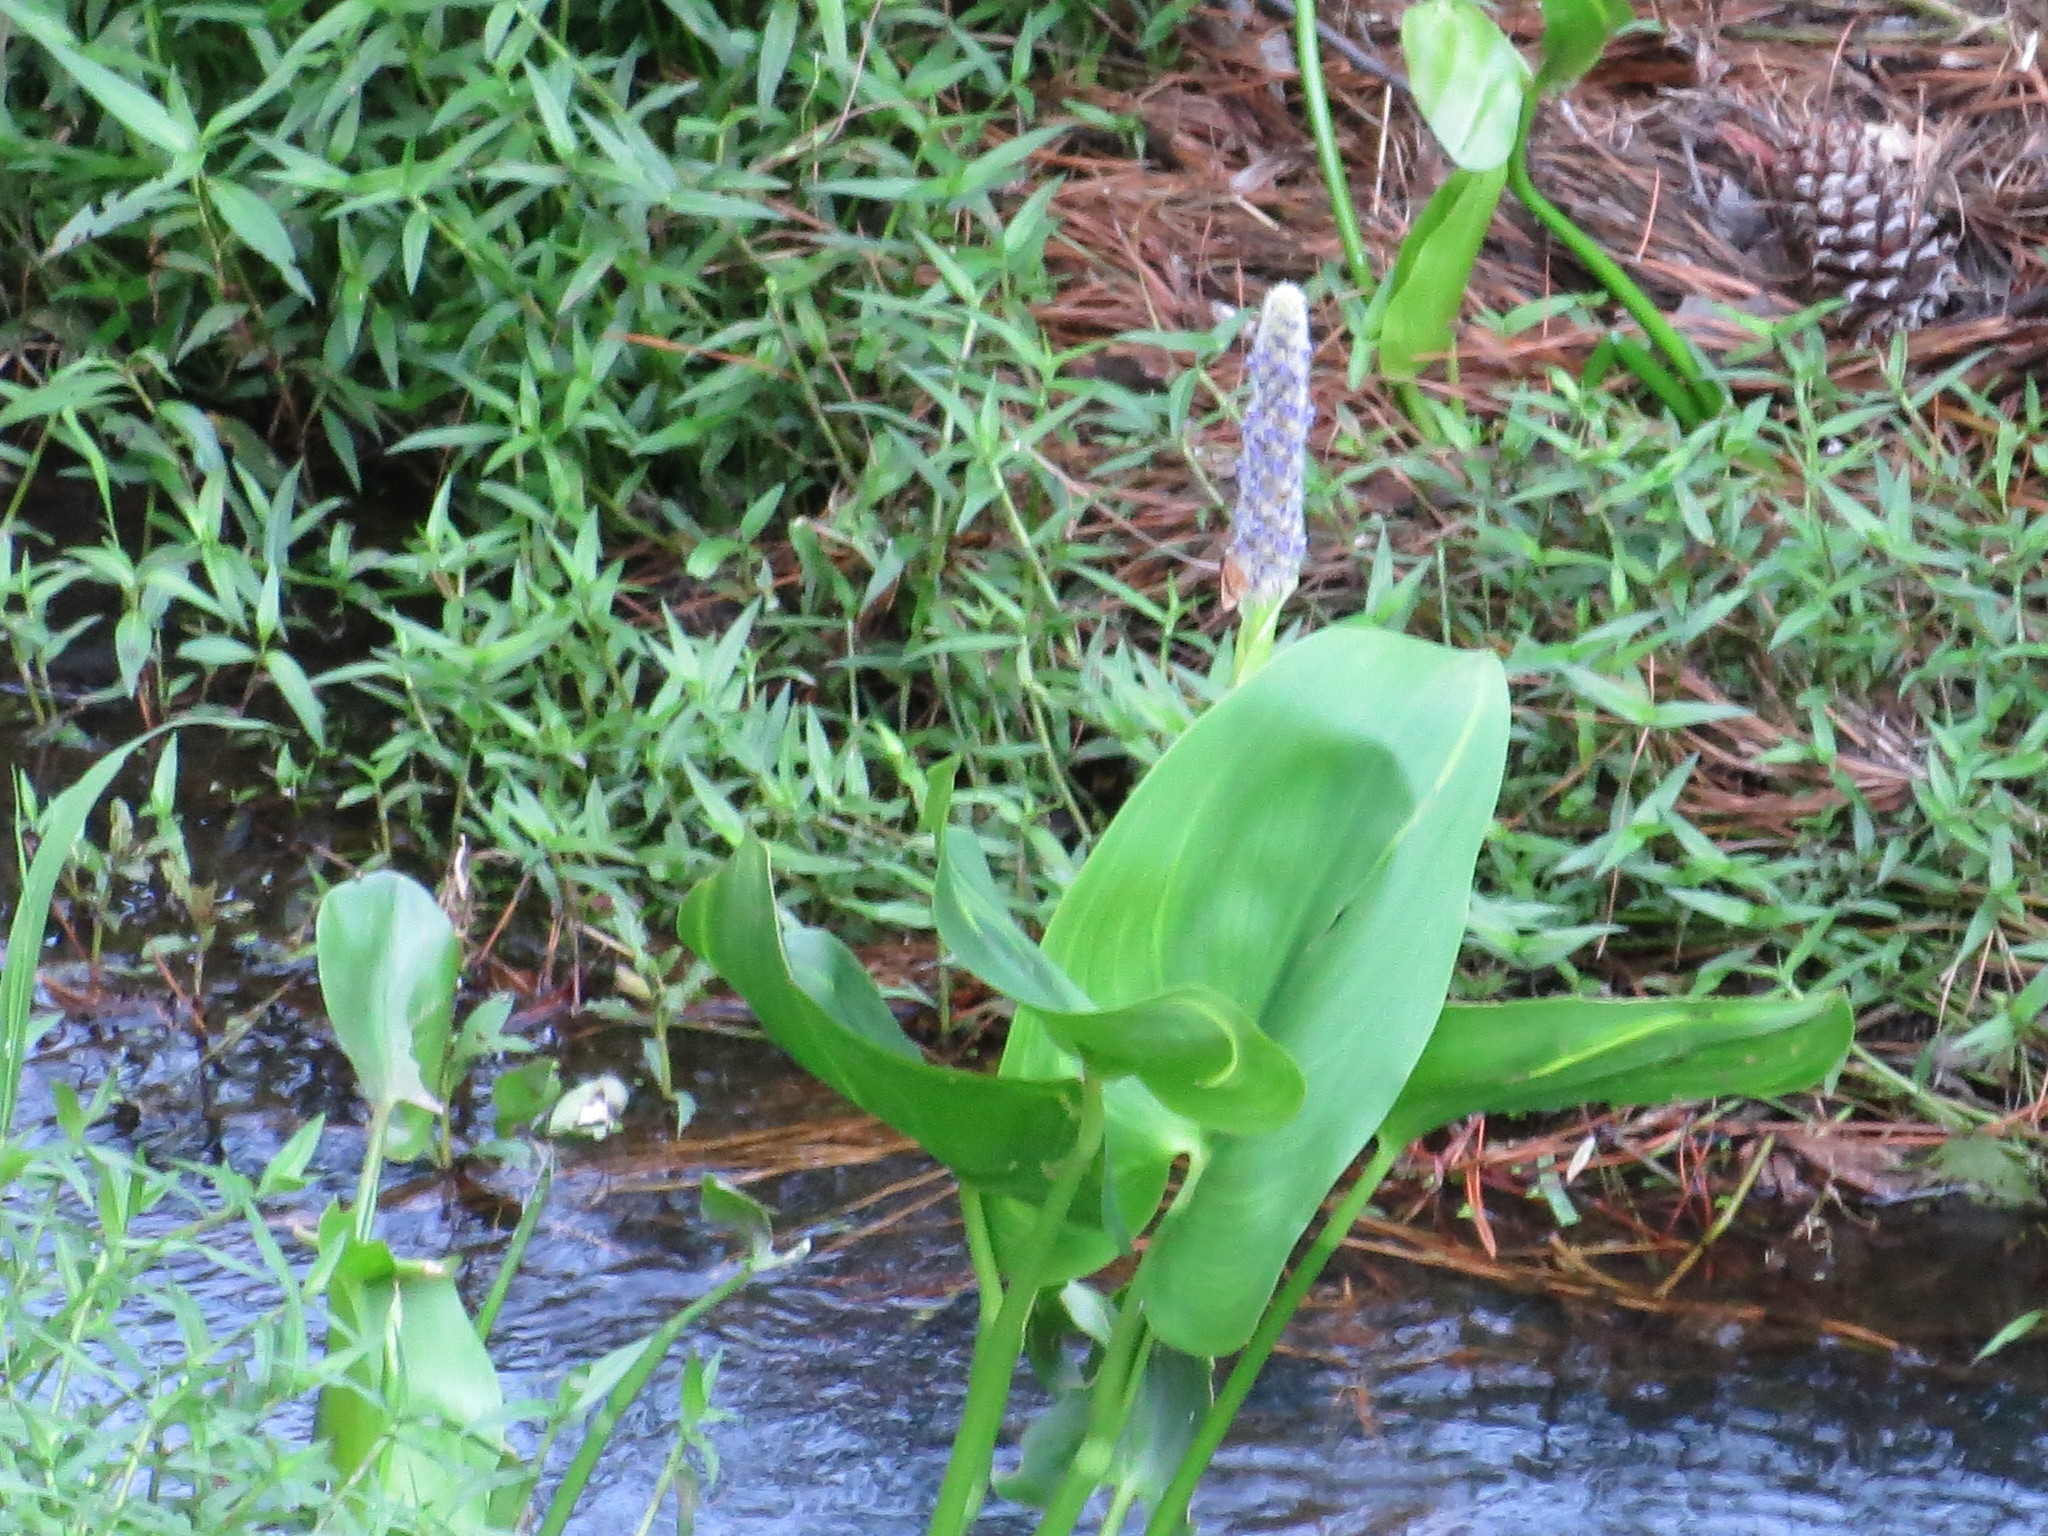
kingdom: Plantae
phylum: Tracheophyta
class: Liliopsida
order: Commelinales
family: Pontederiaceae
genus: Pontederia
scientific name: Pontederia cordata
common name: Pickerelweed
